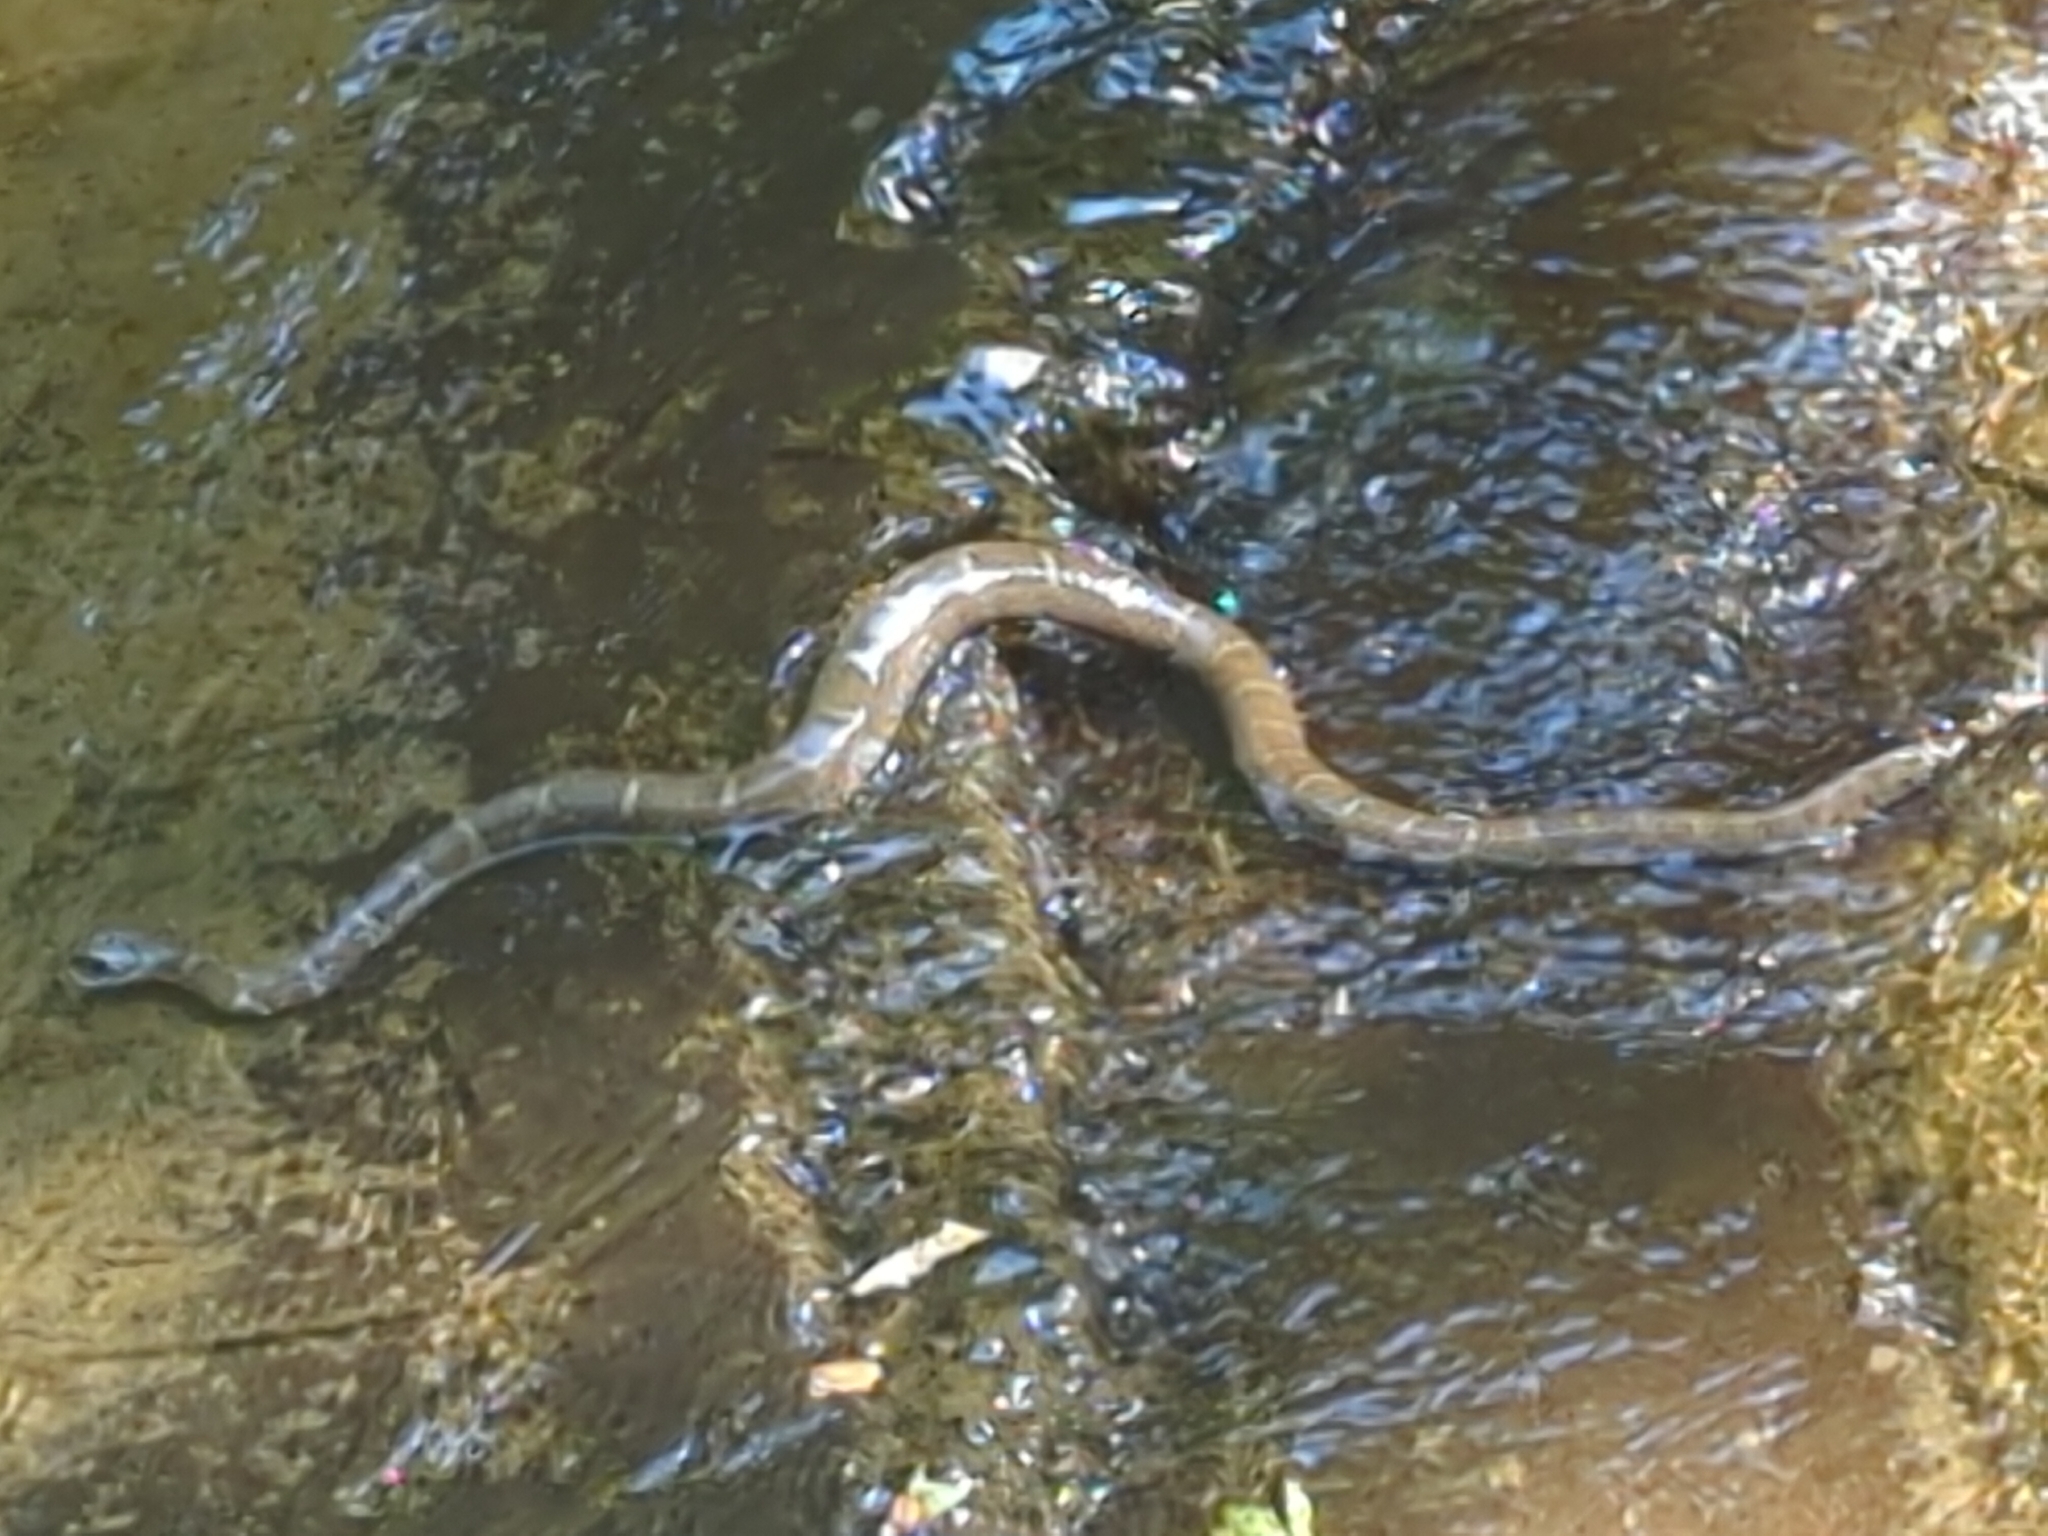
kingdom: Animalia
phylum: Chordata
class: Squamata
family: Colubridae
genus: Nerodia
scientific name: Nerodia sipedon
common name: Northern water snake
